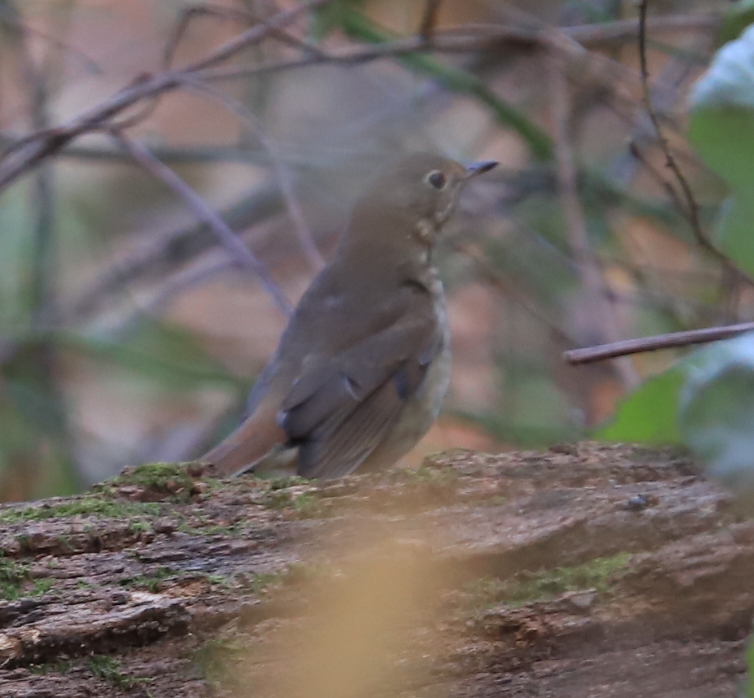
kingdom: Animalia
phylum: Chordata
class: Aves
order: Passeriformes
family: Turdidae
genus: Catharus
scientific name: Catharus guttatus
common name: Hermit thrush
